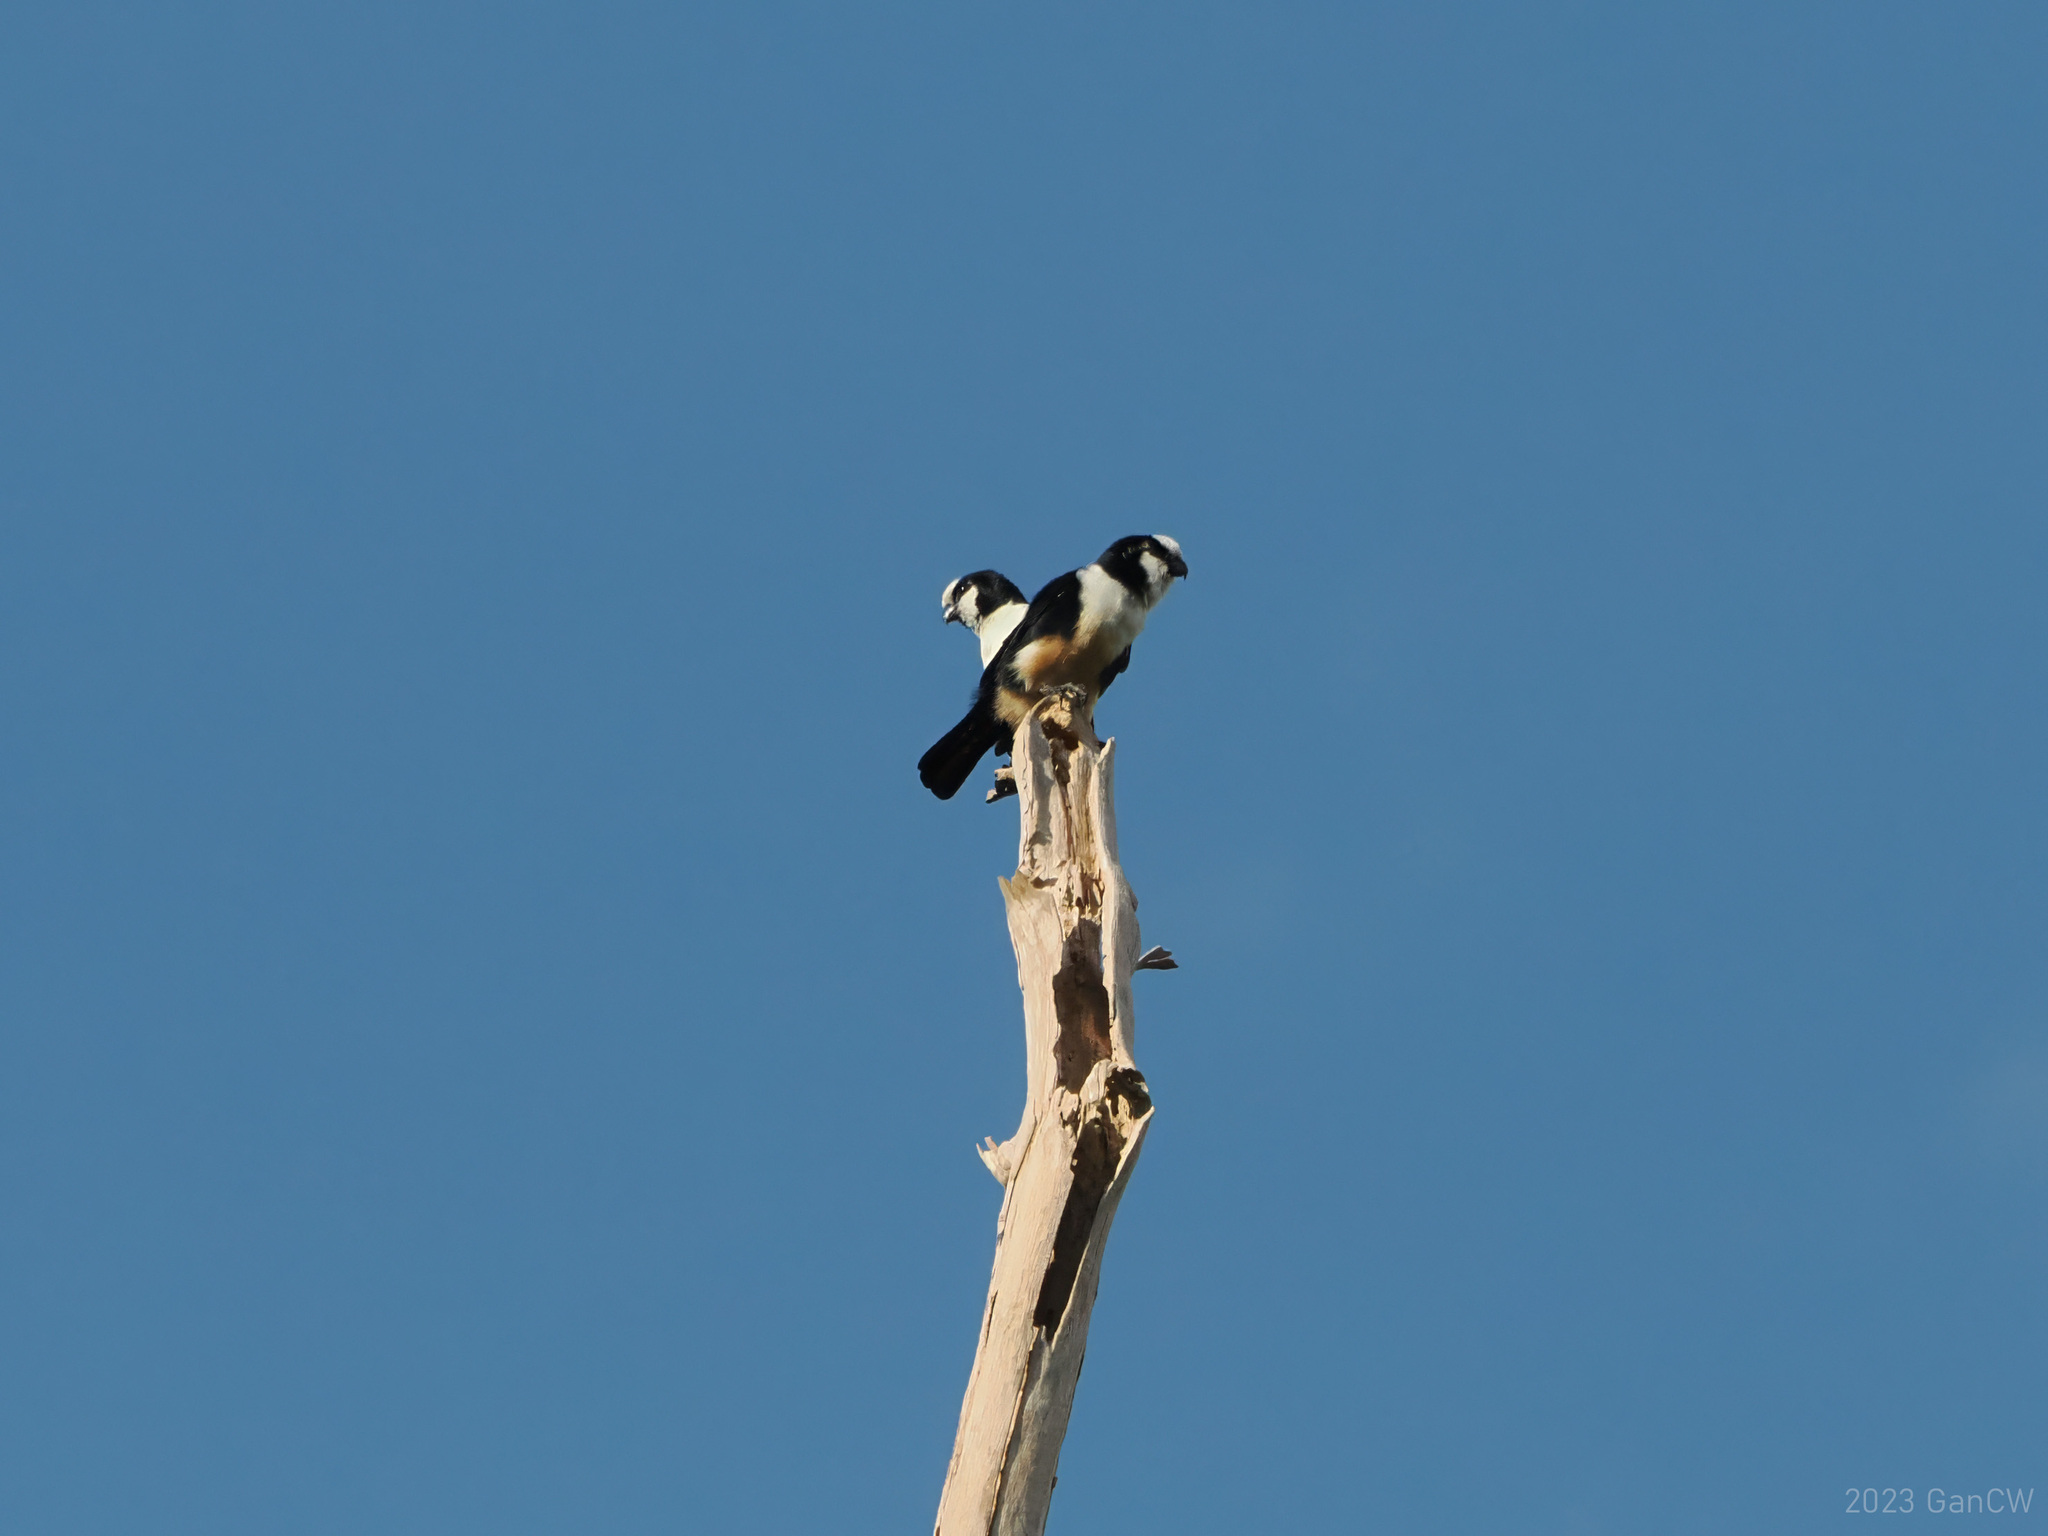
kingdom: Animalia
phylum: Chordata
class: Aves
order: Falconiformes
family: Falconidae
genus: Microhierax
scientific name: Microhierax latifrons
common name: White-fronted falconet
